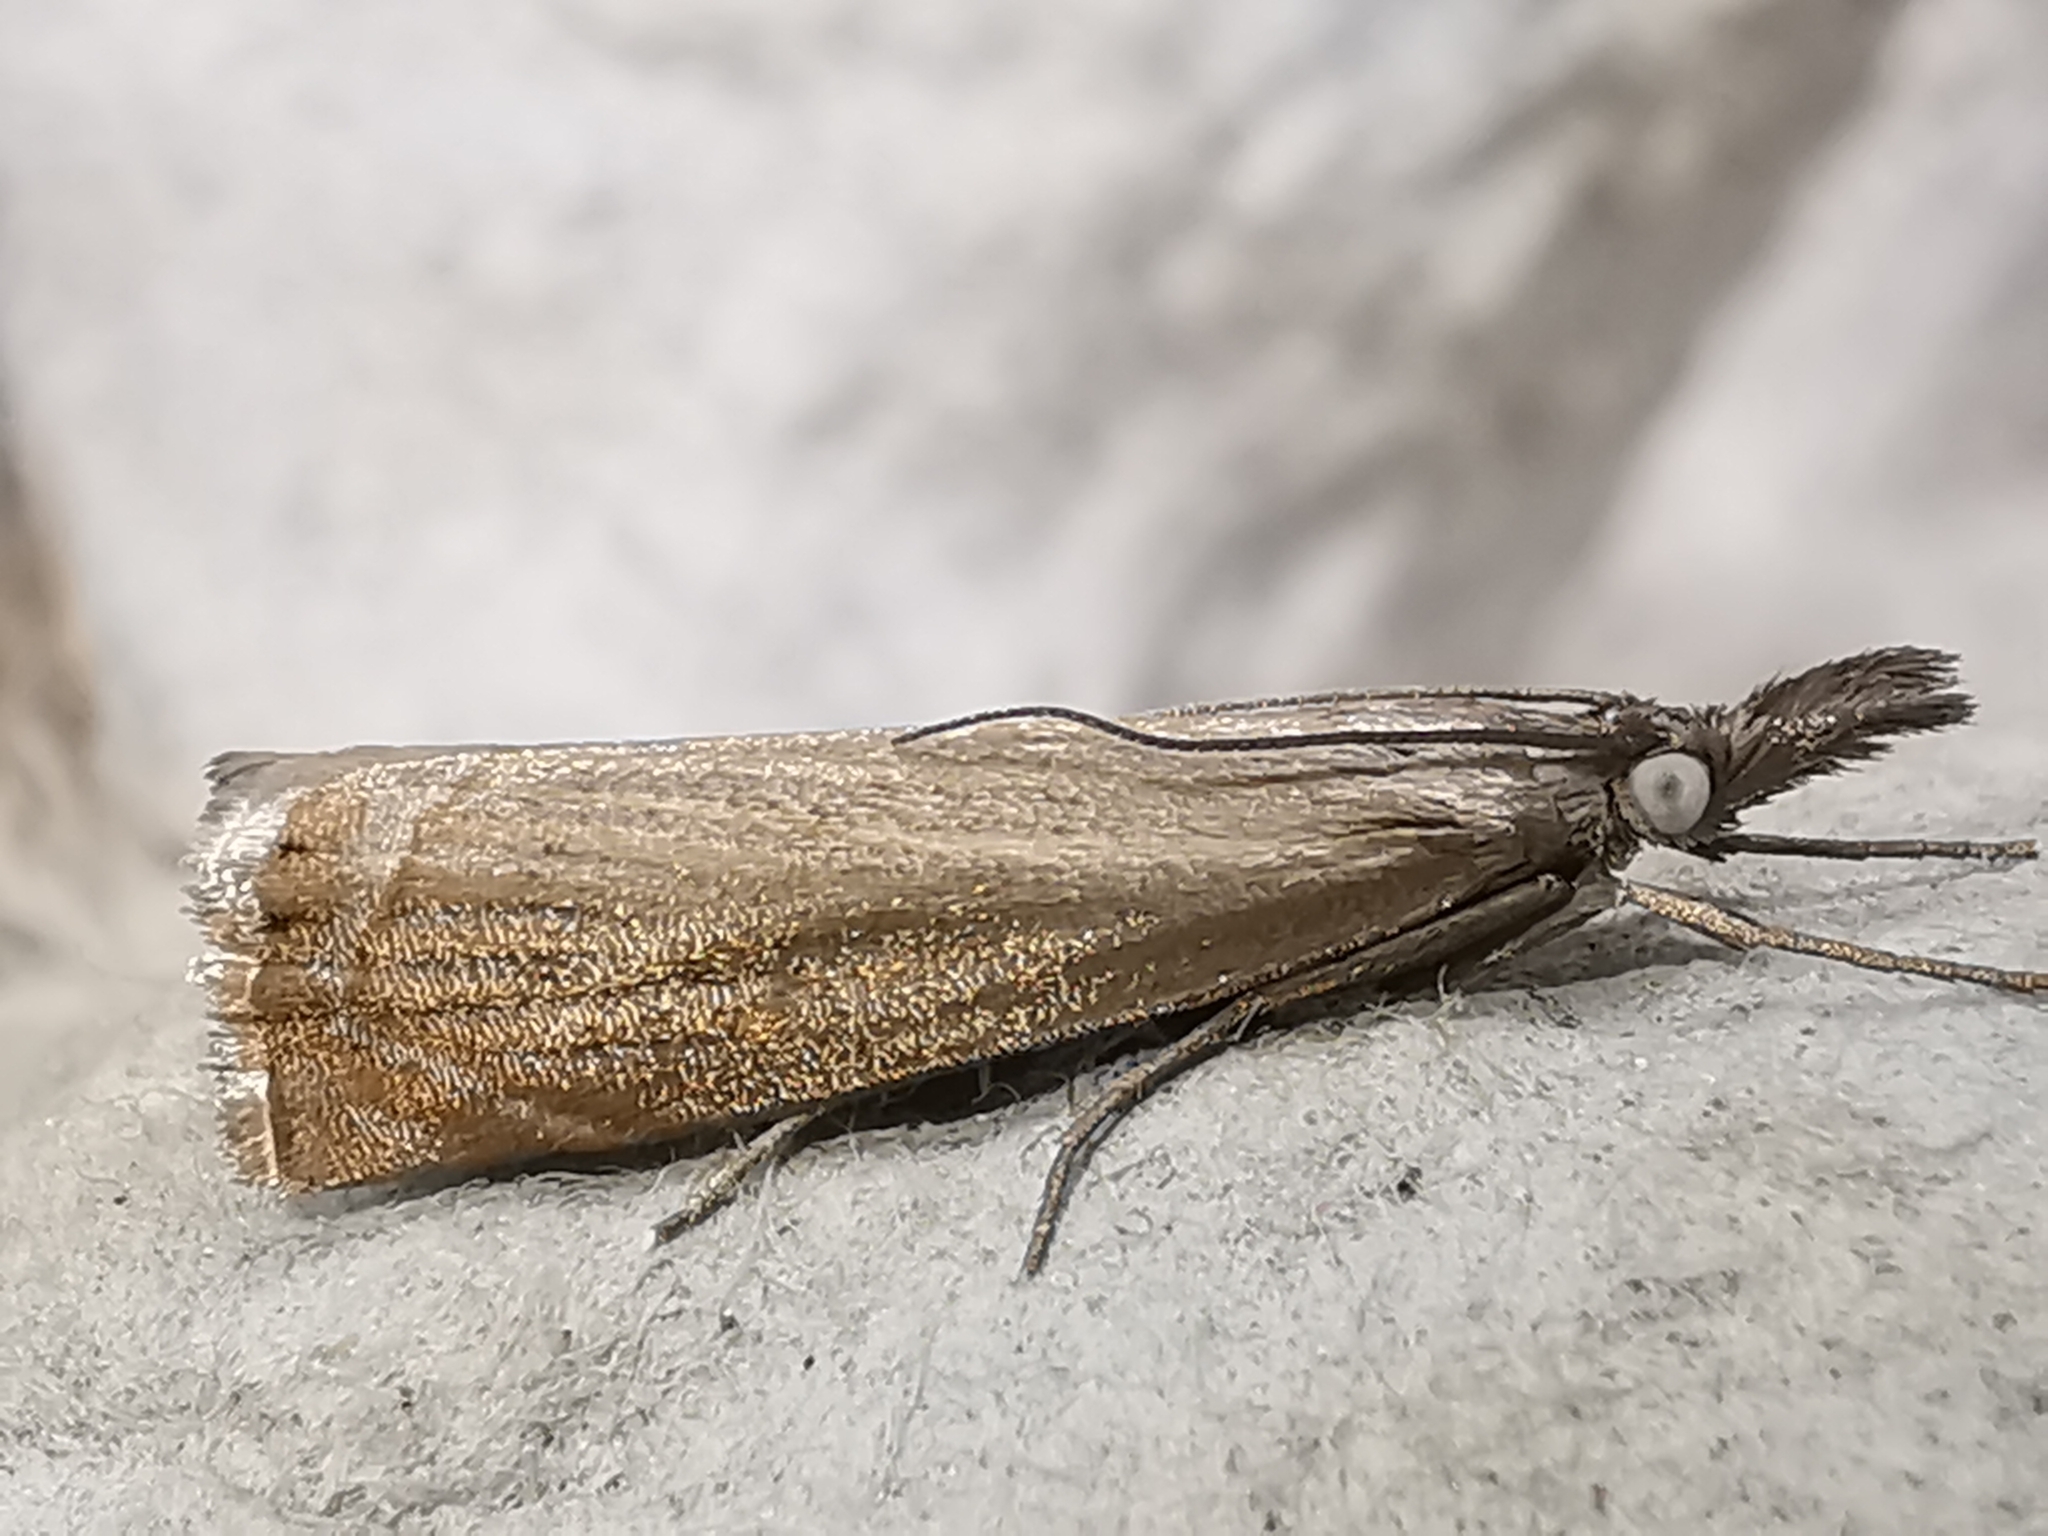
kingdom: Animalia
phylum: Arthropoda
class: Insecta
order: Lepidoptera
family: Crambidae
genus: Chrysoteuchia
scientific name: Chrysoteuchia culmella
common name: Garden grass-veneer
